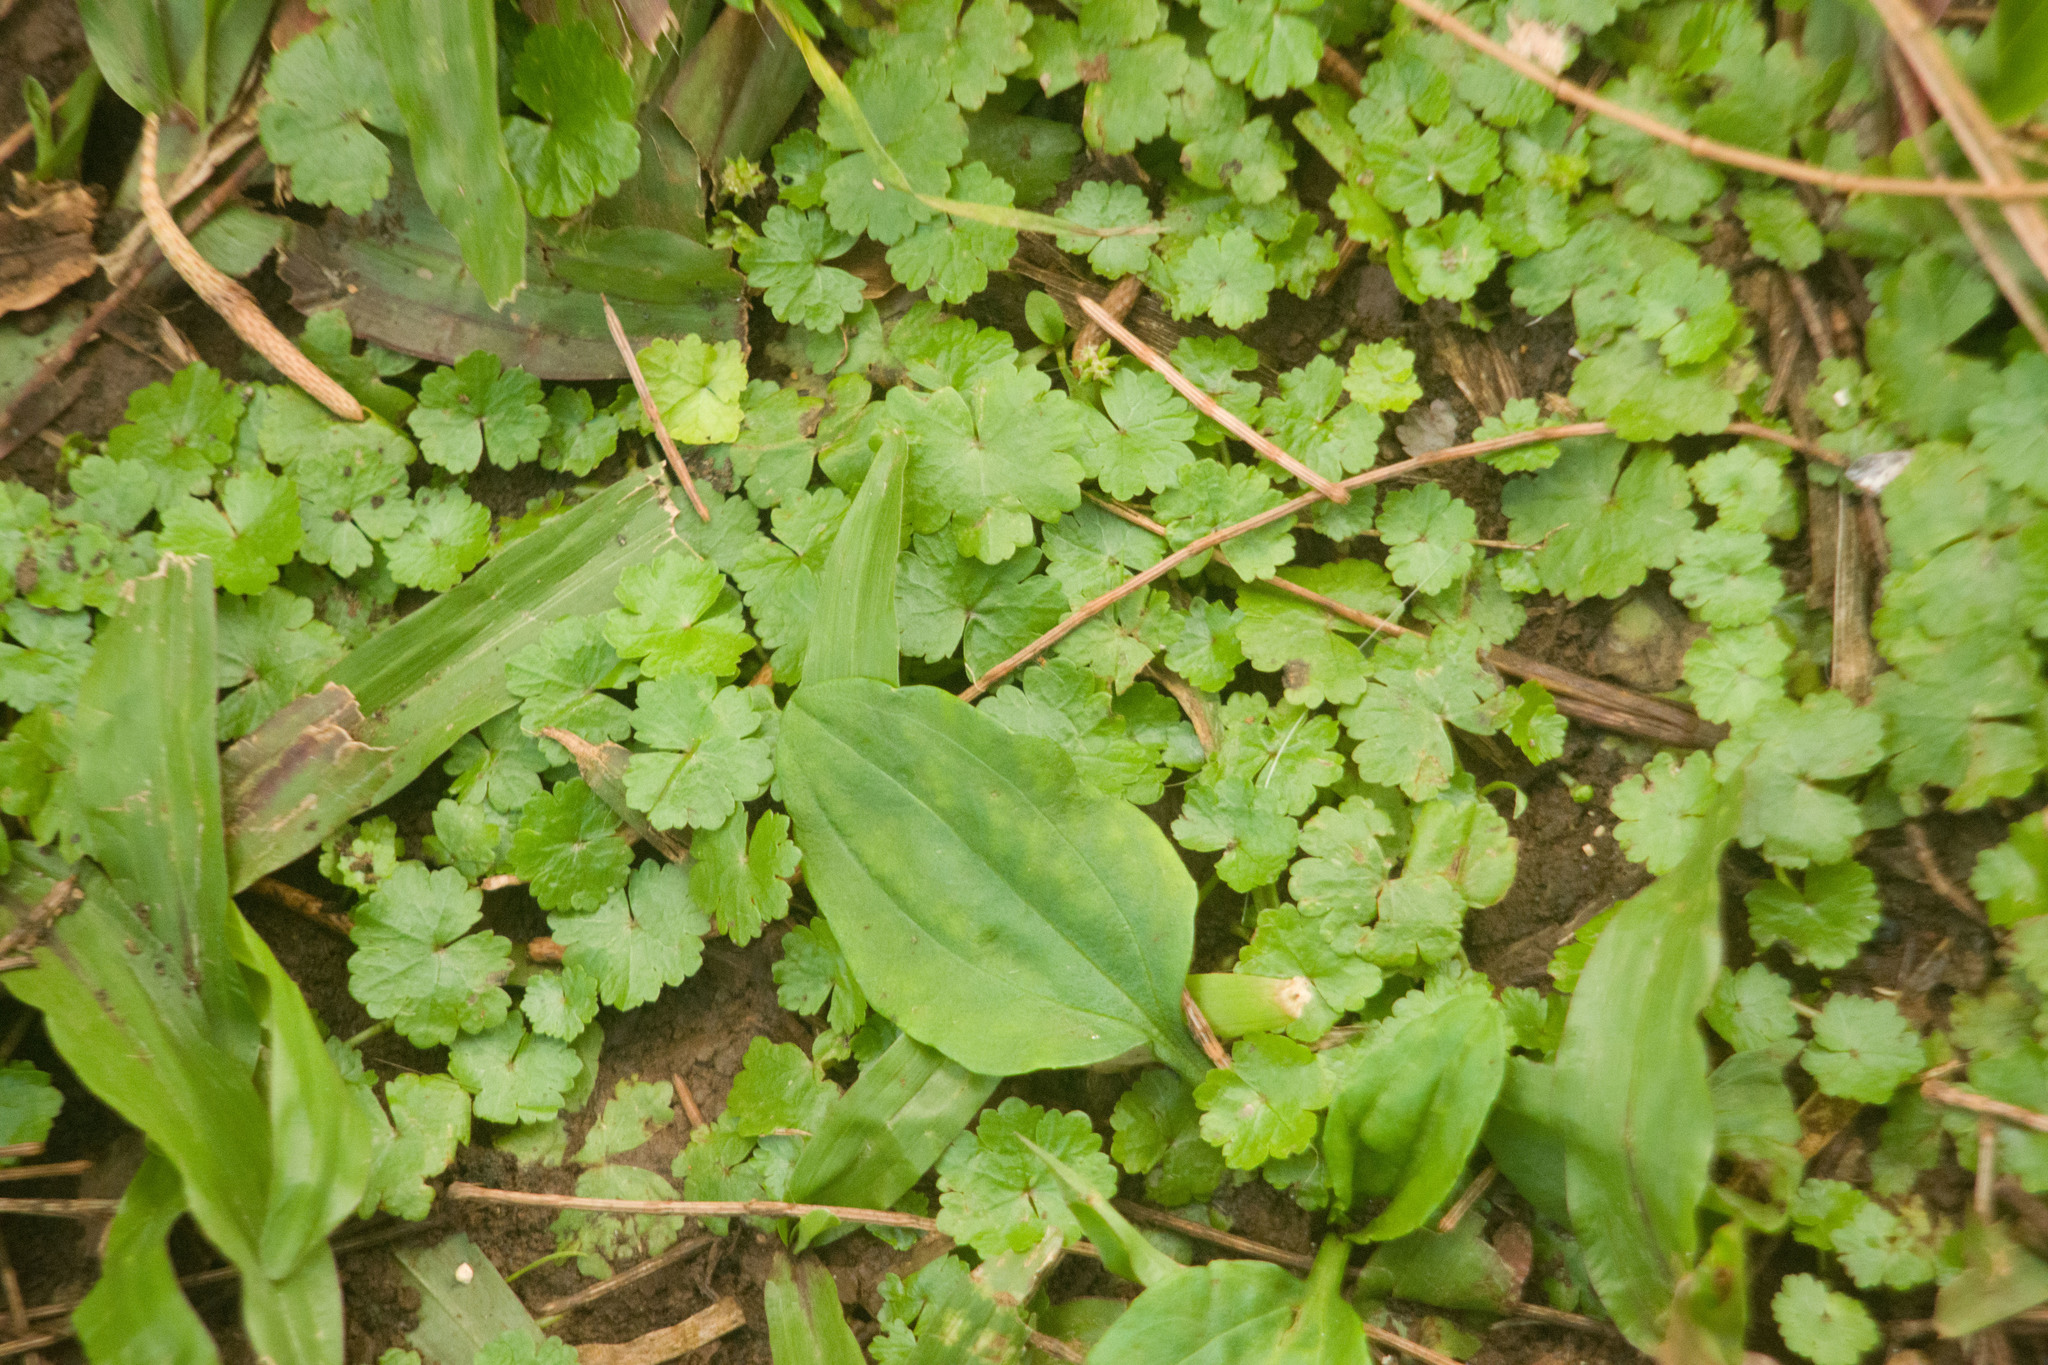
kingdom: Plantae
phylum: Tracheophyta
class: Magnoliopsida
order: Apiales
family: Araliaceae
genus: Hydrocotyle
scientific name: Hydrocotyle sibthorpioides
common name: Lawn marshpennywort
